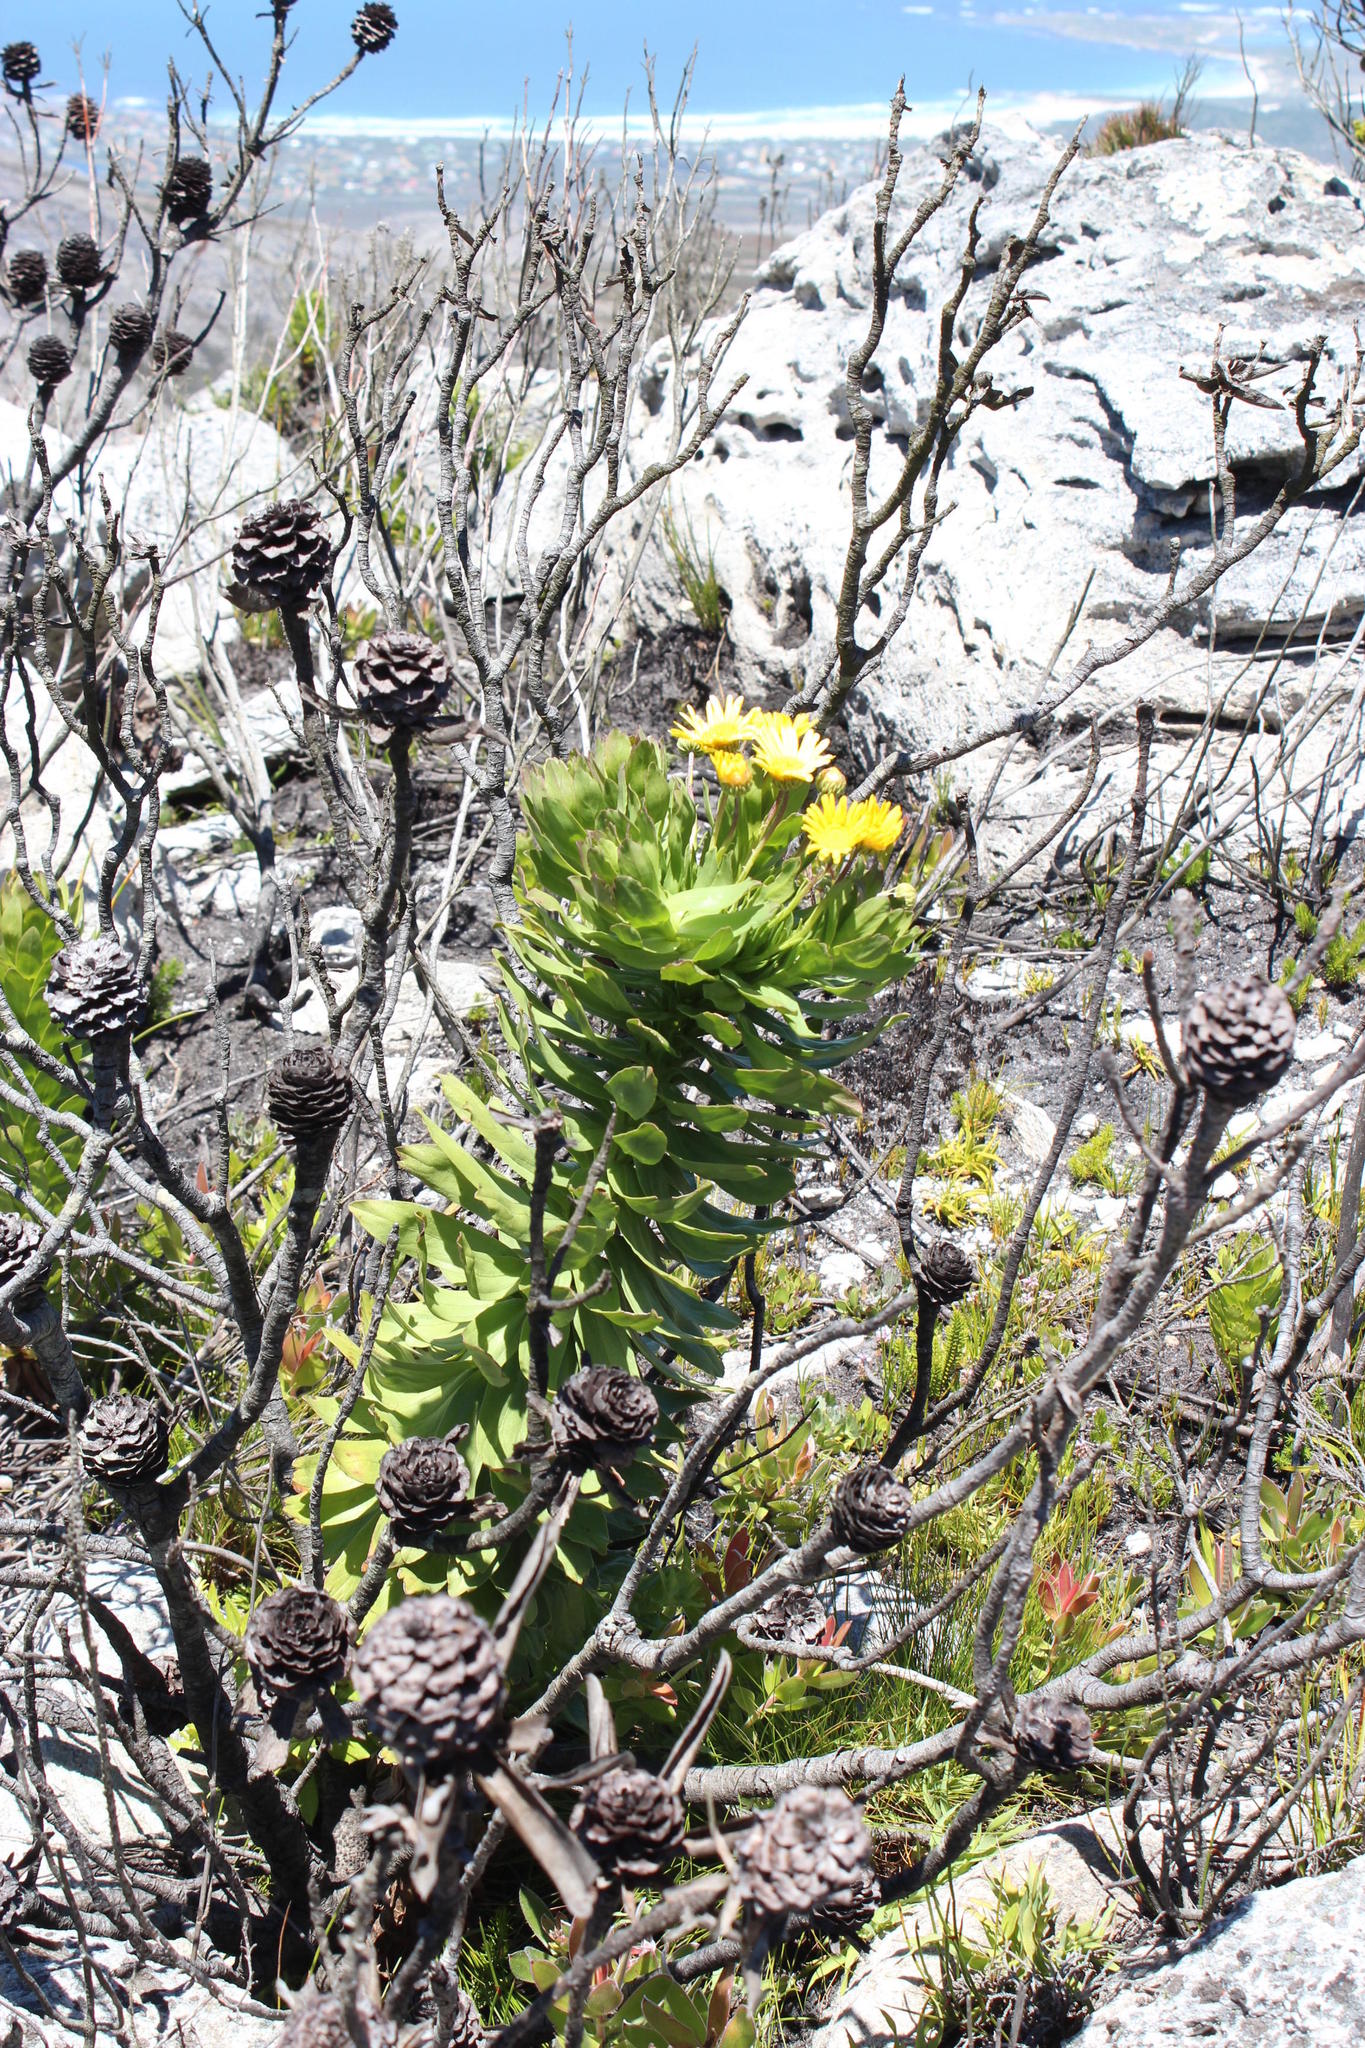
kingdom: Plantae
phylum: Tracheophyta
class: Magnoliopsida
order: Asterales
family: Asteraceae
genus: Ursinia
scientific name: Ursinia eckloniana
